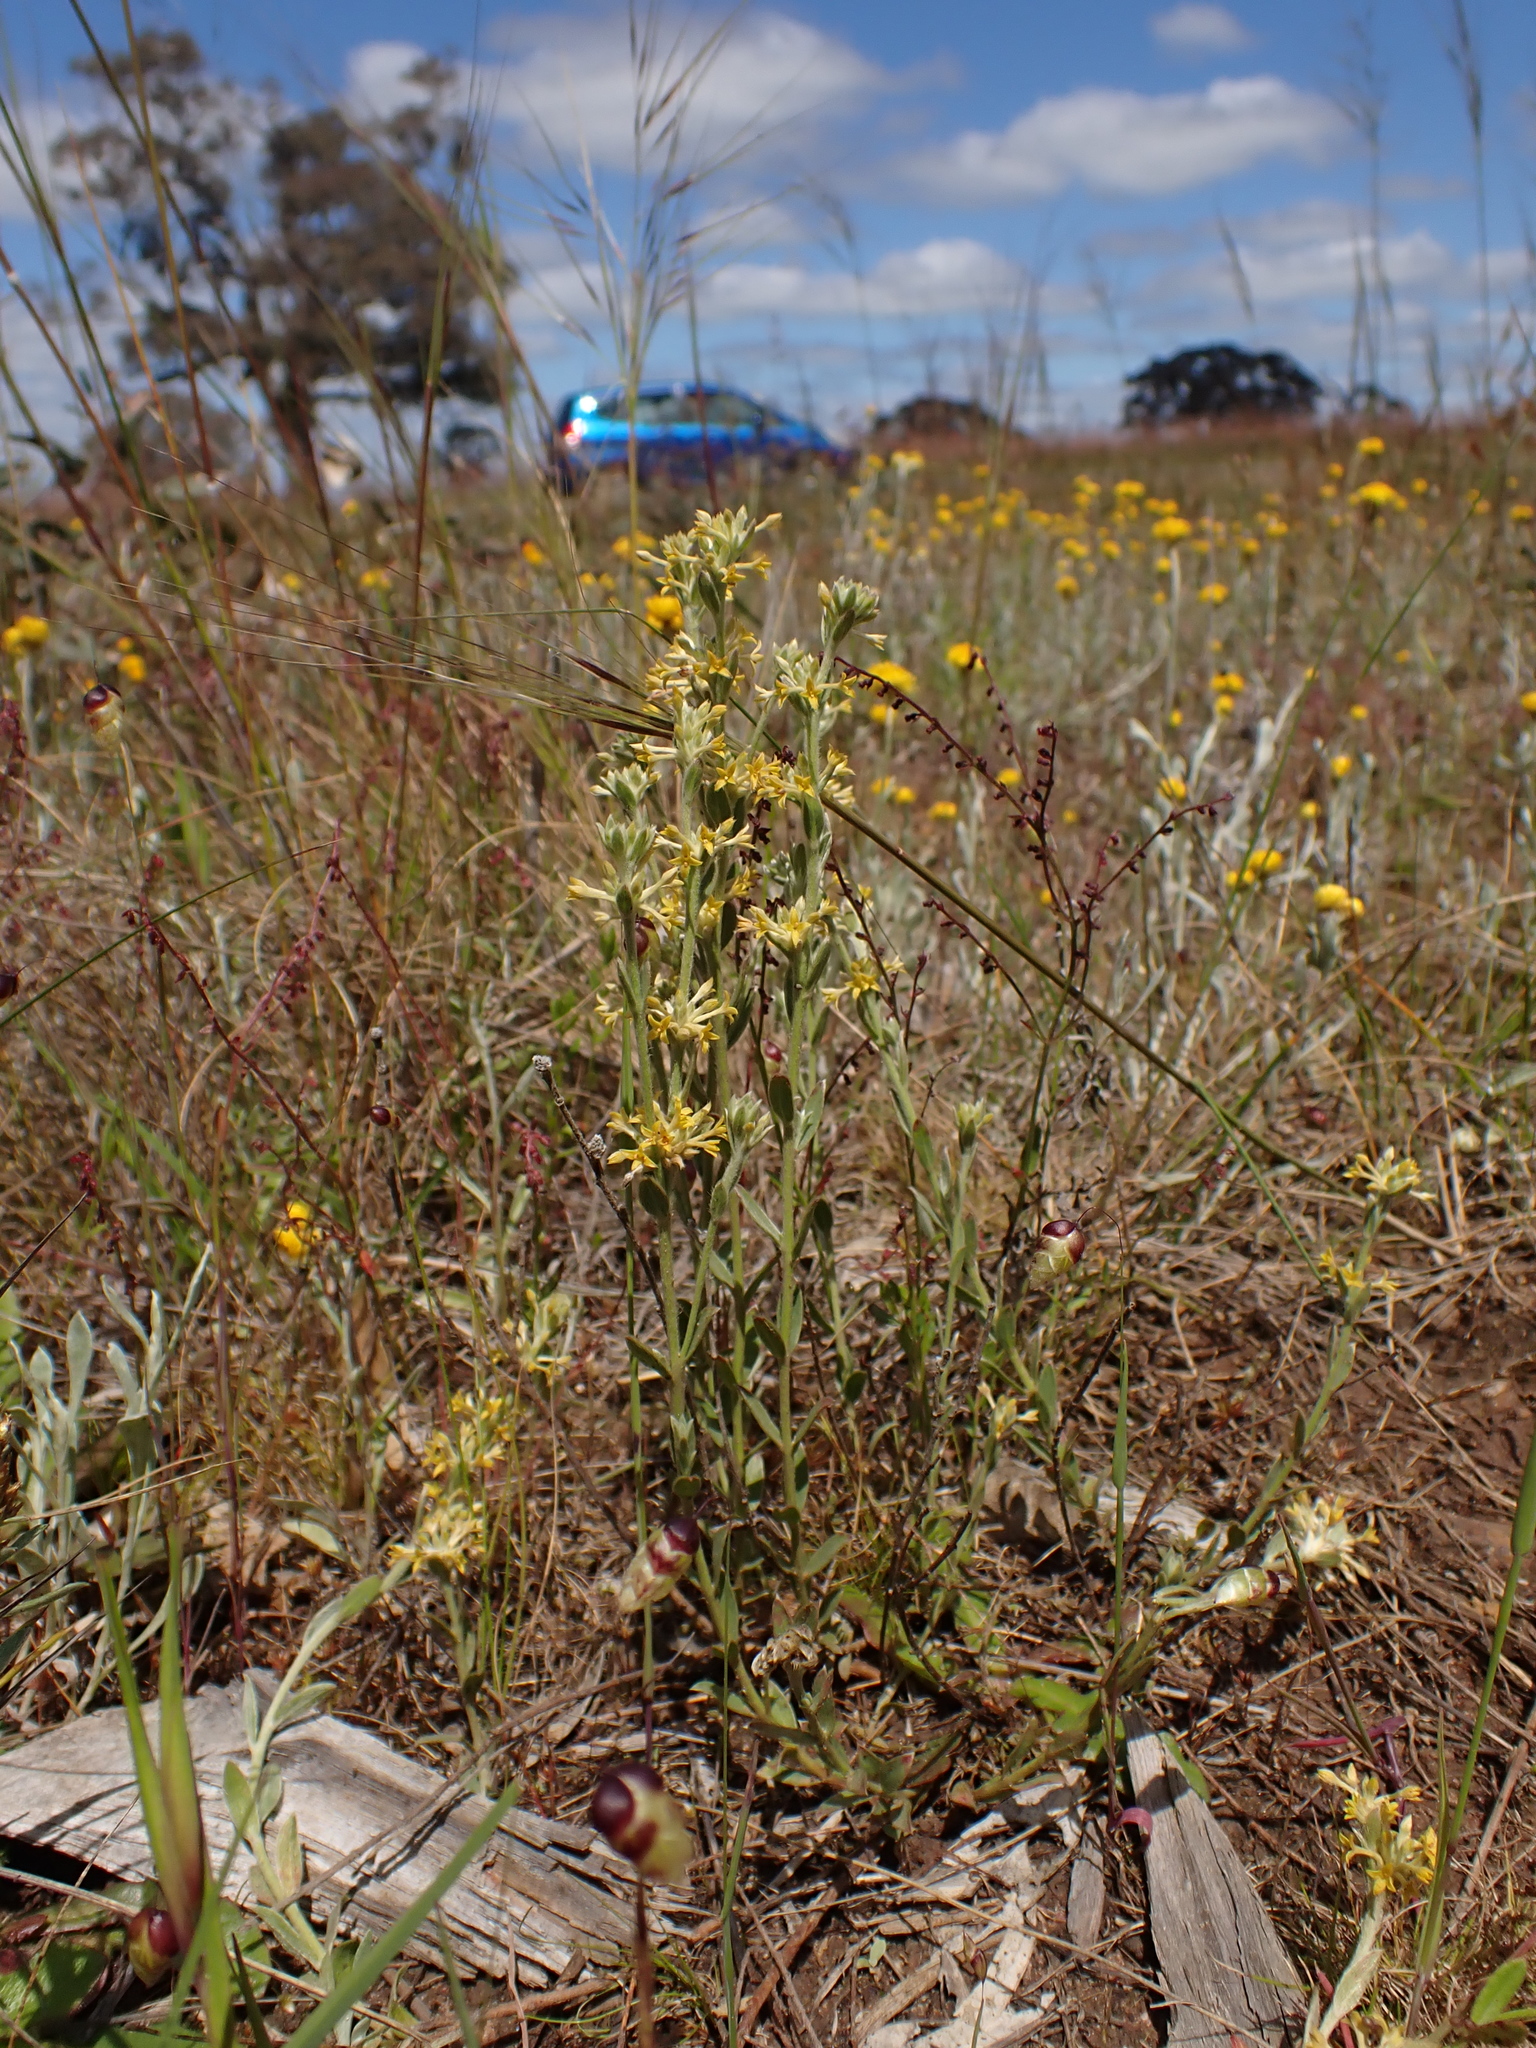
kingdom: Plantae
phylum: Tracheophyta
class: Magnoliopsida
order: Malvales
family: Thymelaeaceae
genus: Pimelea
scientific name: Pimelea curviflora
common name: Curved riceflower
